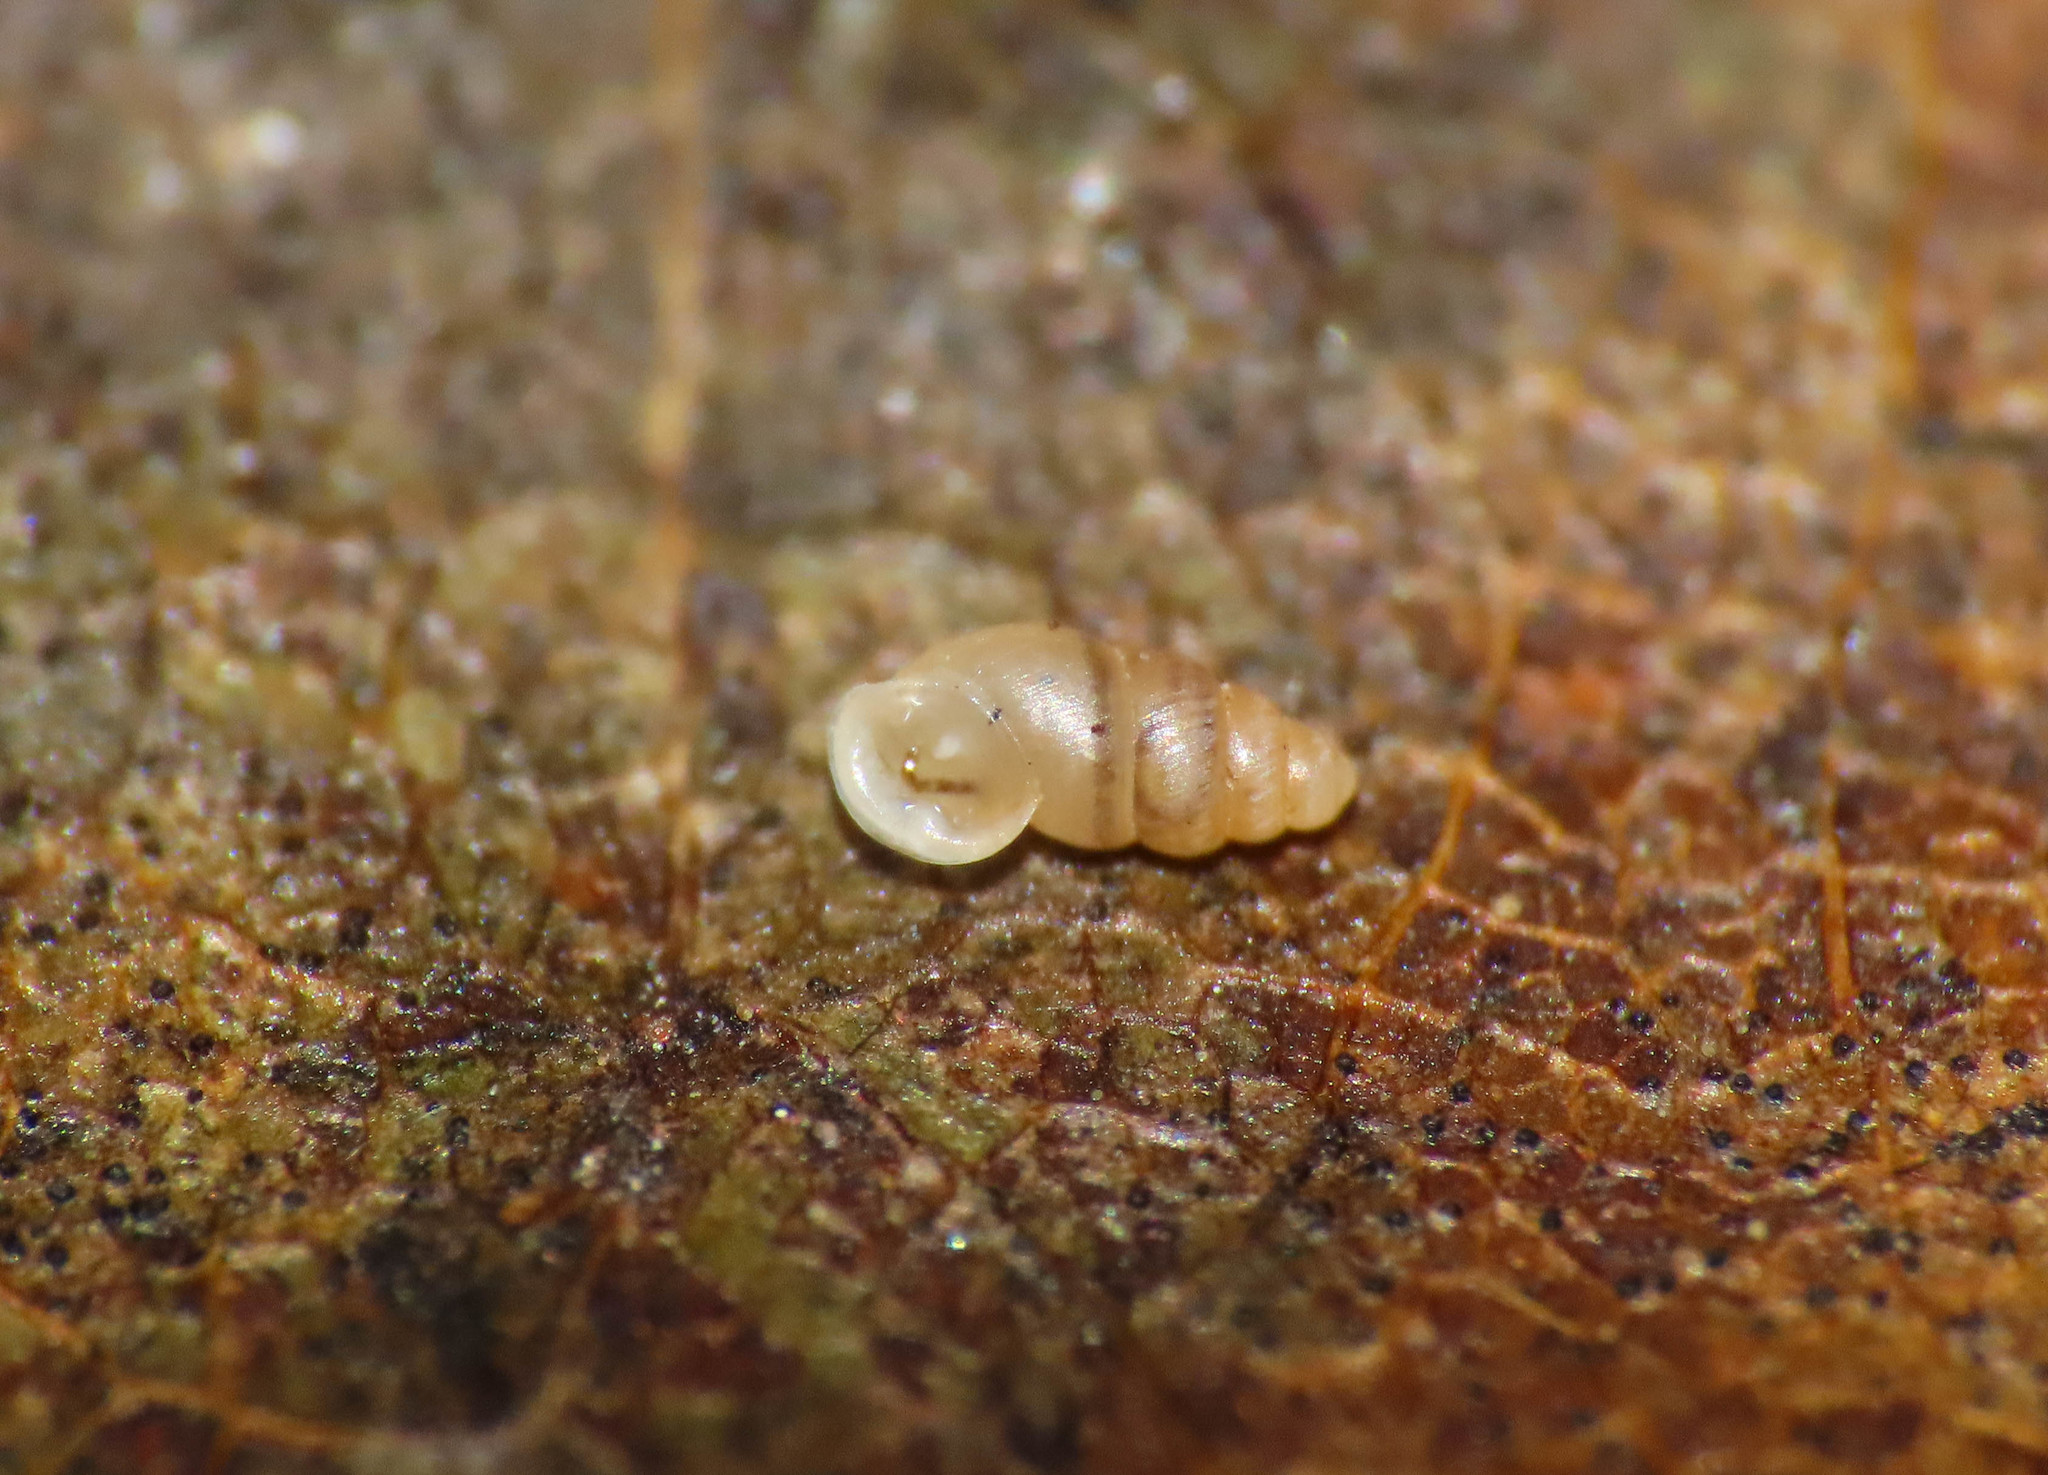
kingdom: Animalia
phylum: Mollusca
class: Gastropoda
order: Ellobiida
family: Ellobiidae
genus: Carychium
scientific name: Carychium tridentatum
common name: Long-toothed herald snail
